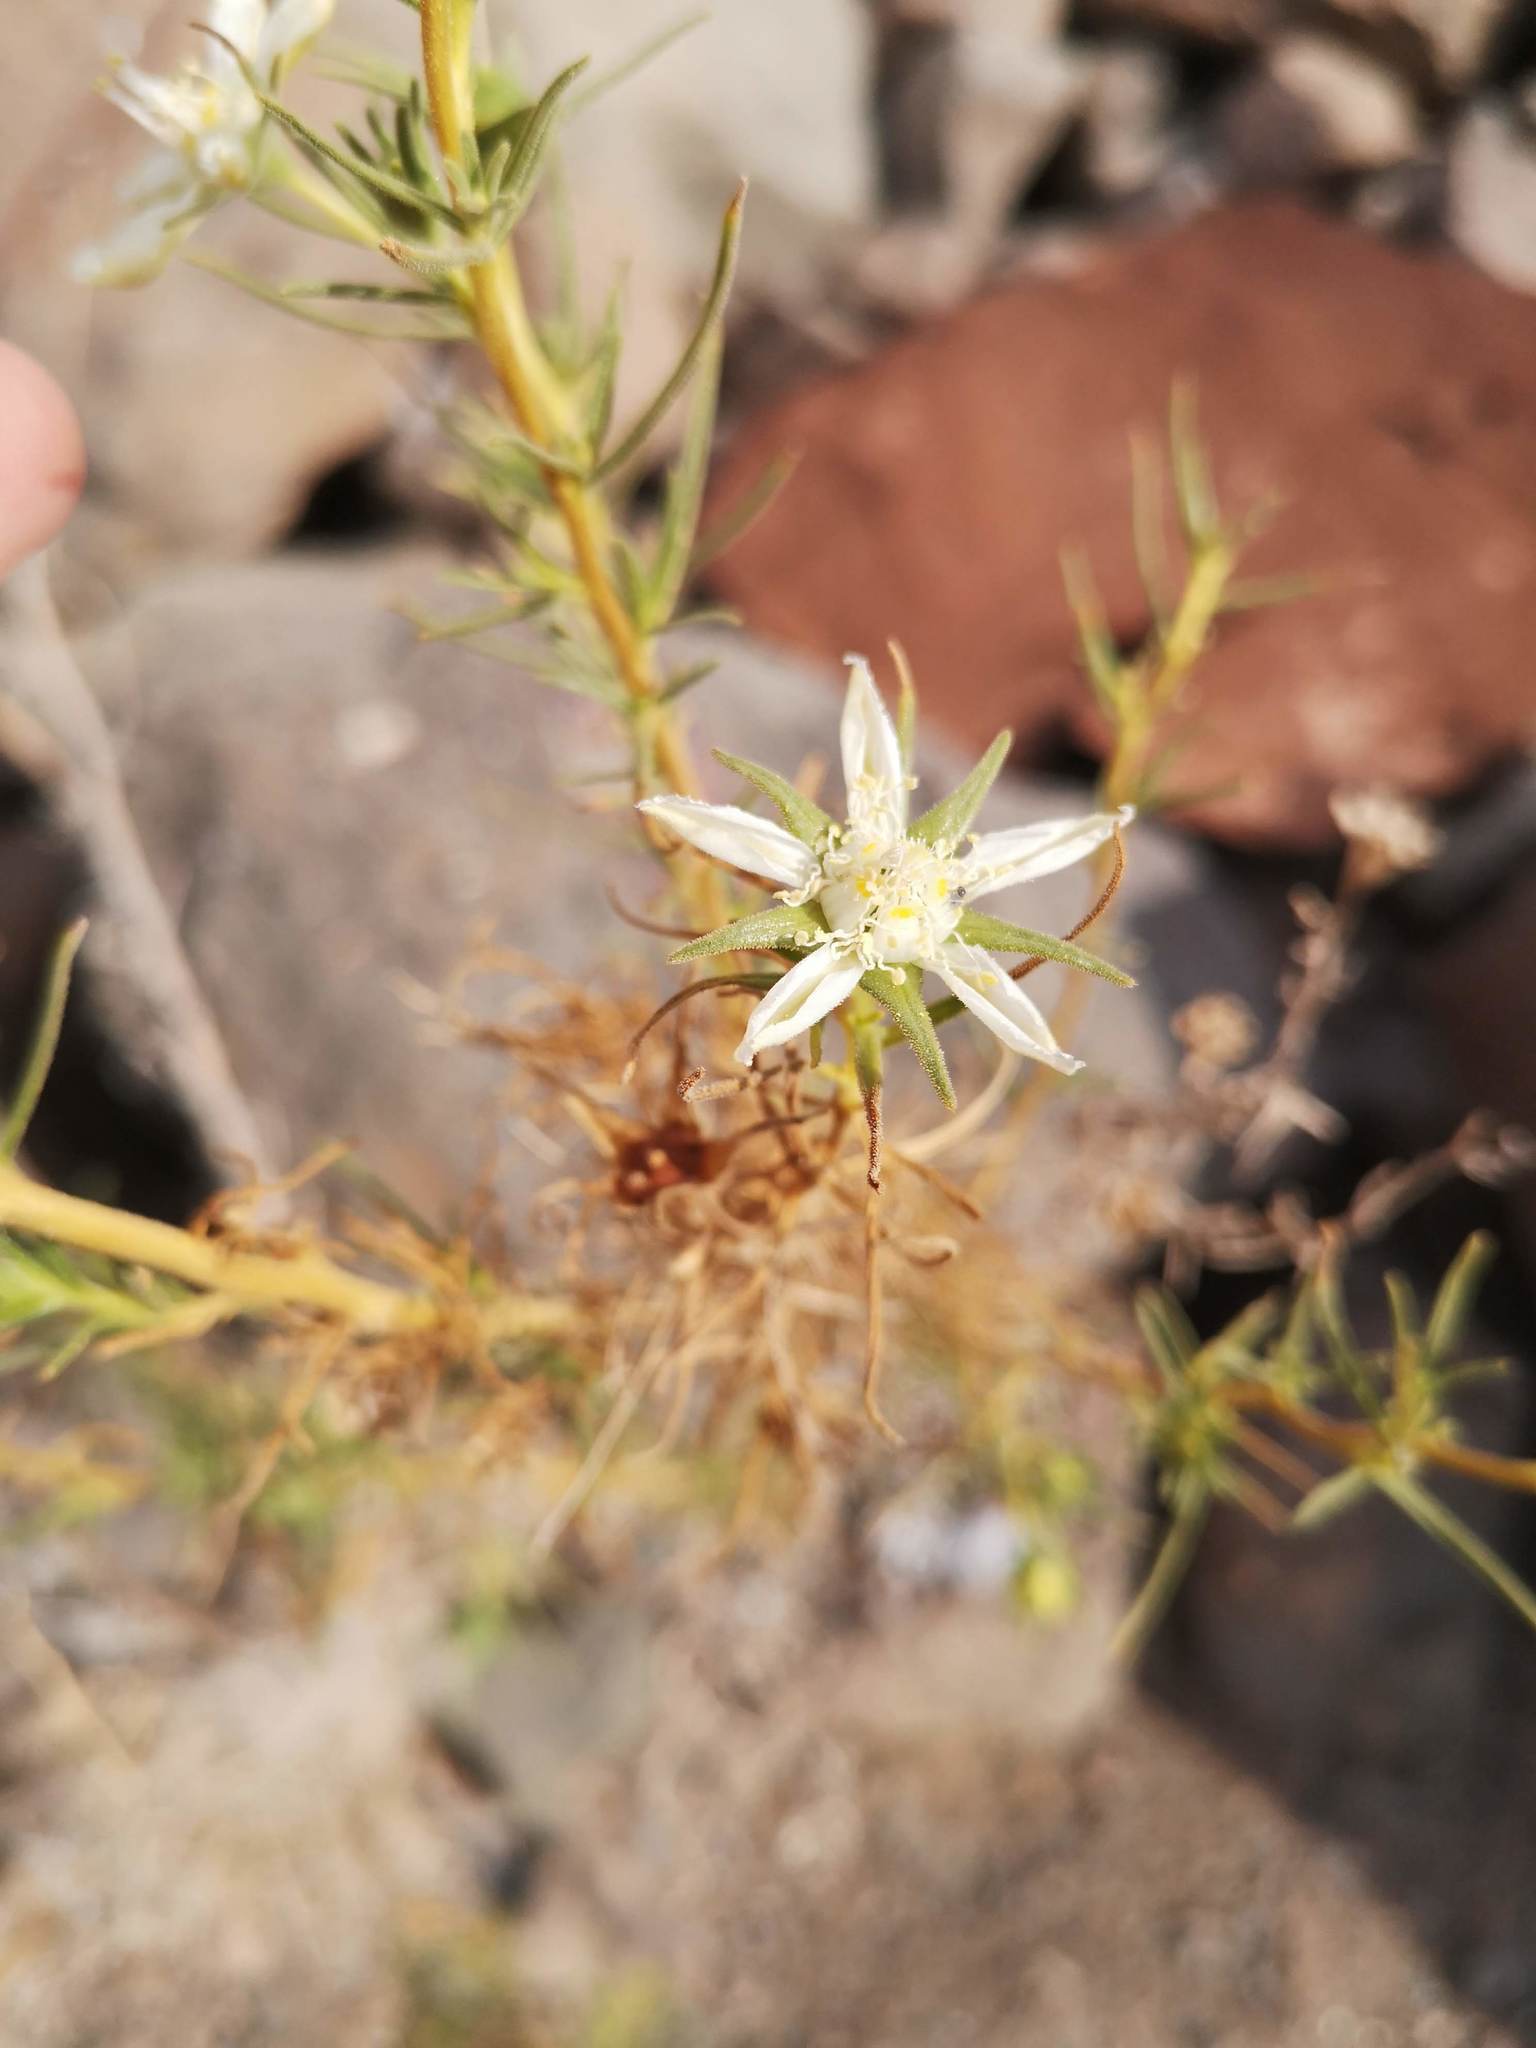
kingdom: Plantae
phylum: Tracheophyta
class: Magnoliopsida
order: Cornales
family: Loasaceae
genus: Huidobria
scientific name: Huidobria chilensis
